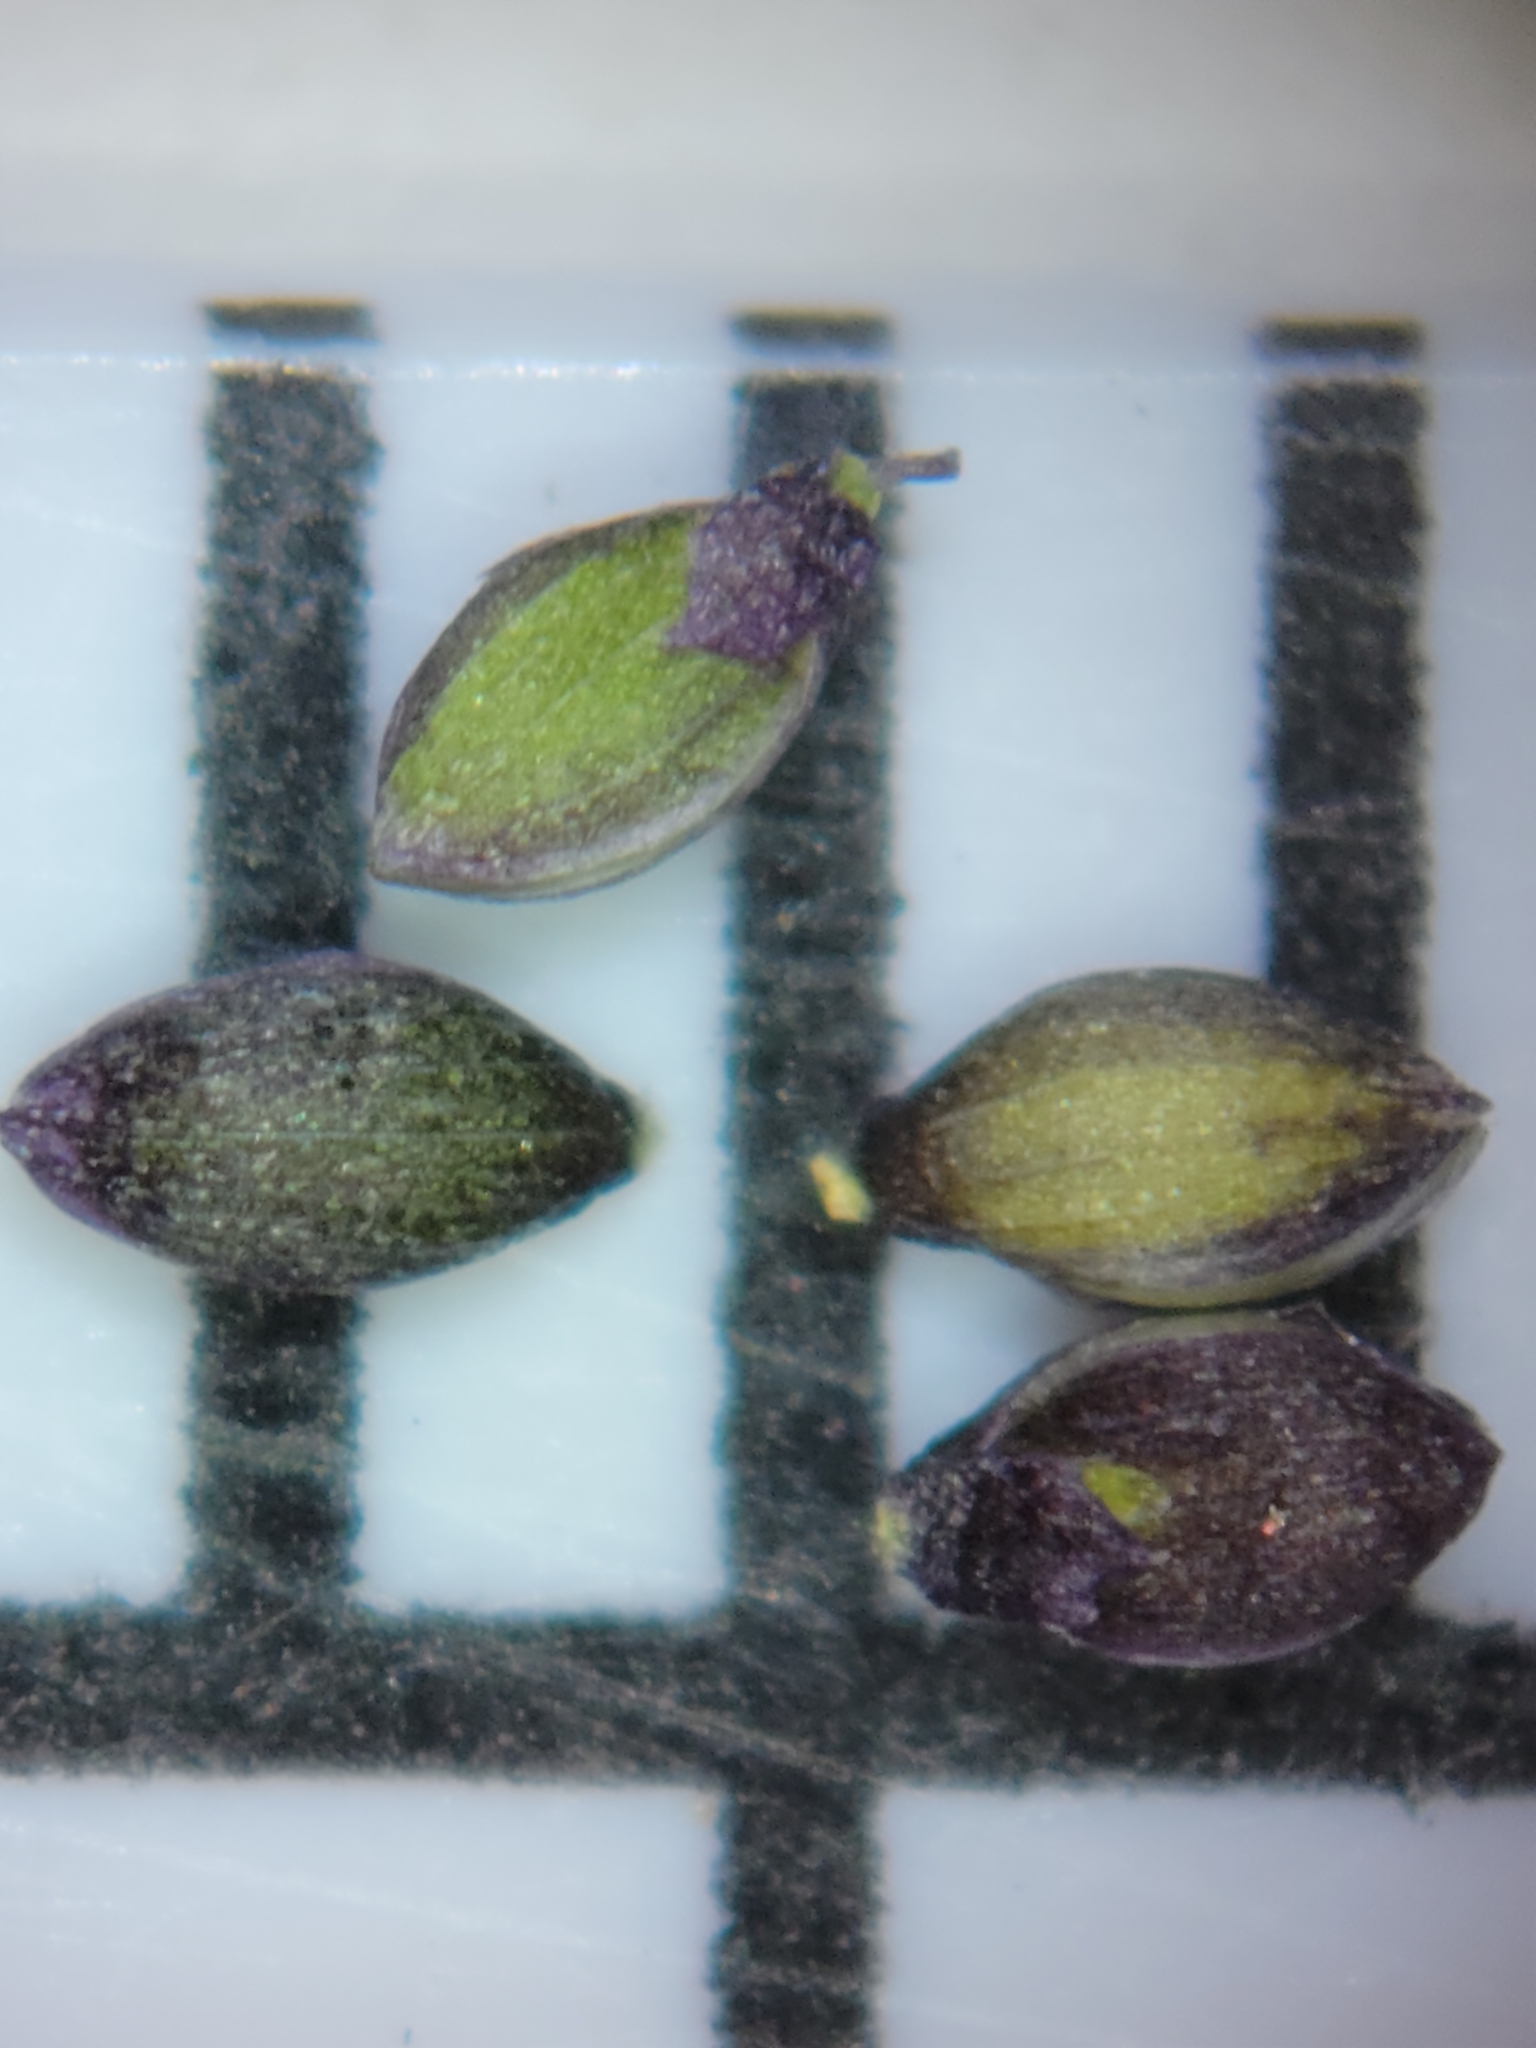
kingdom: Plantae
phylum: Tracheophyta
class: Liliopsida
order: Poales
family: Poaceae
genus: Dichanthelium
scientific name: Dichanthelium glabrifolium
